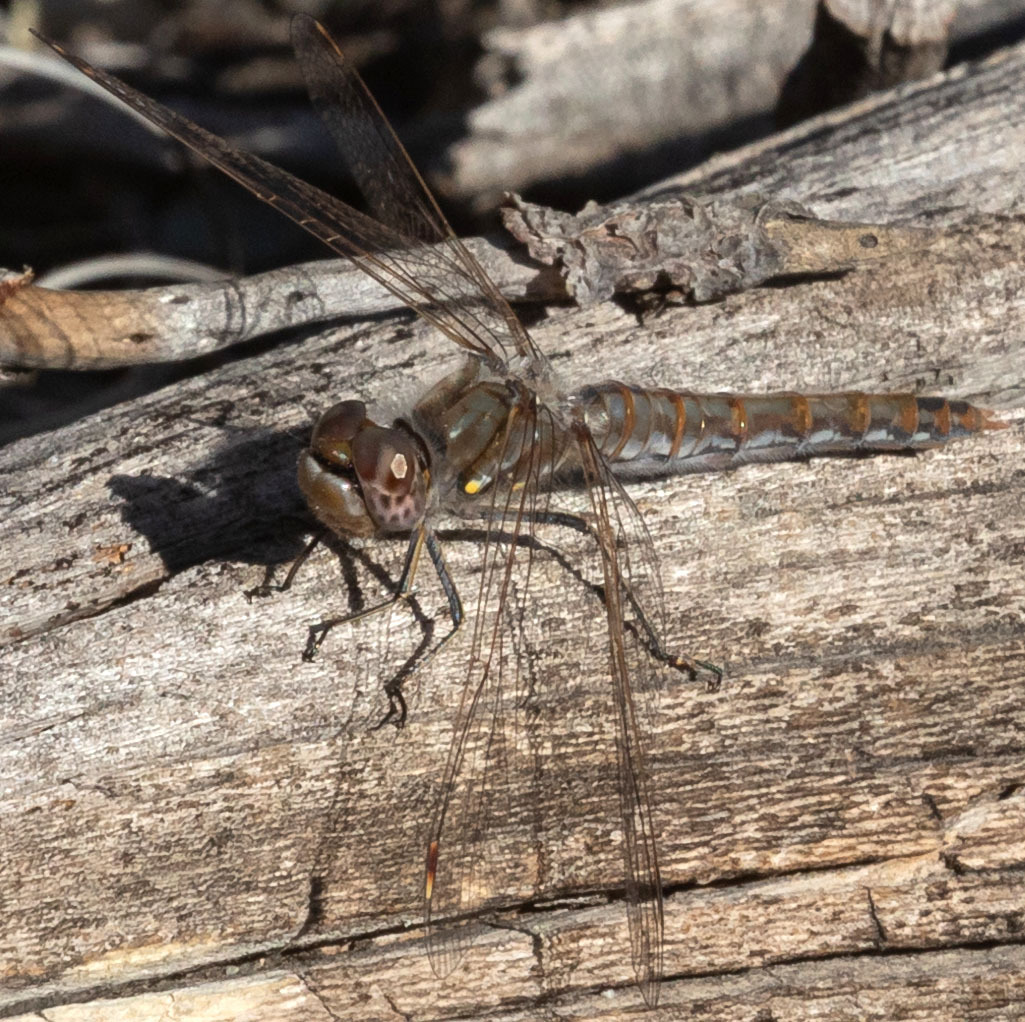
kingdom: Animalia
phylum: Arthropoda
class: Insecta
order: Odonata
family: Libellulidae
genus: Sympetrum
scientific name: Sympetrum corruptum
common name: Variegated meadowhawk
